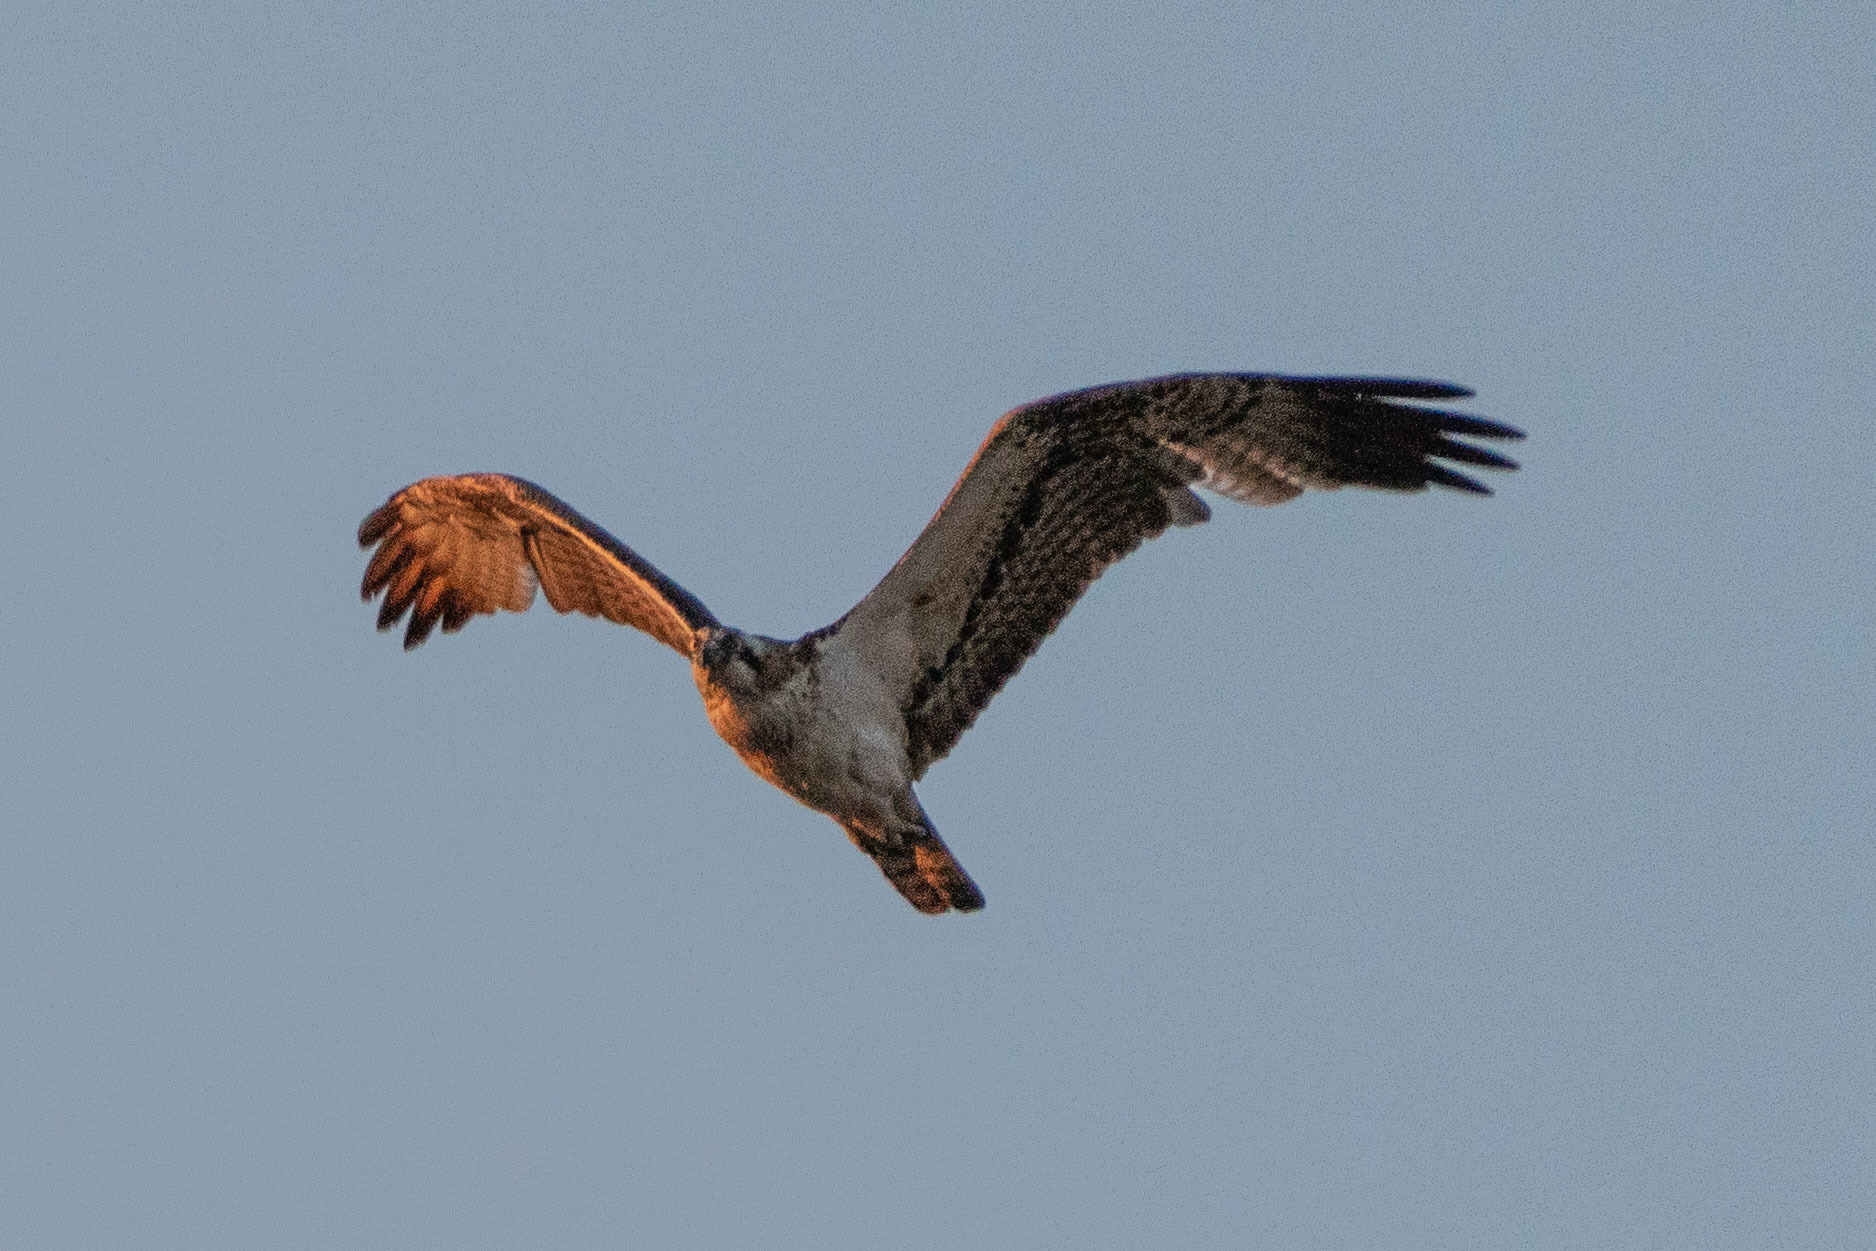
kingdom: Animalia
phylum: Chordata
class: Aves
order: Accipitriformes
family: Pandionidae
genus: Pandion
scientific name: Pandion haliaetus
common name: Osprey
